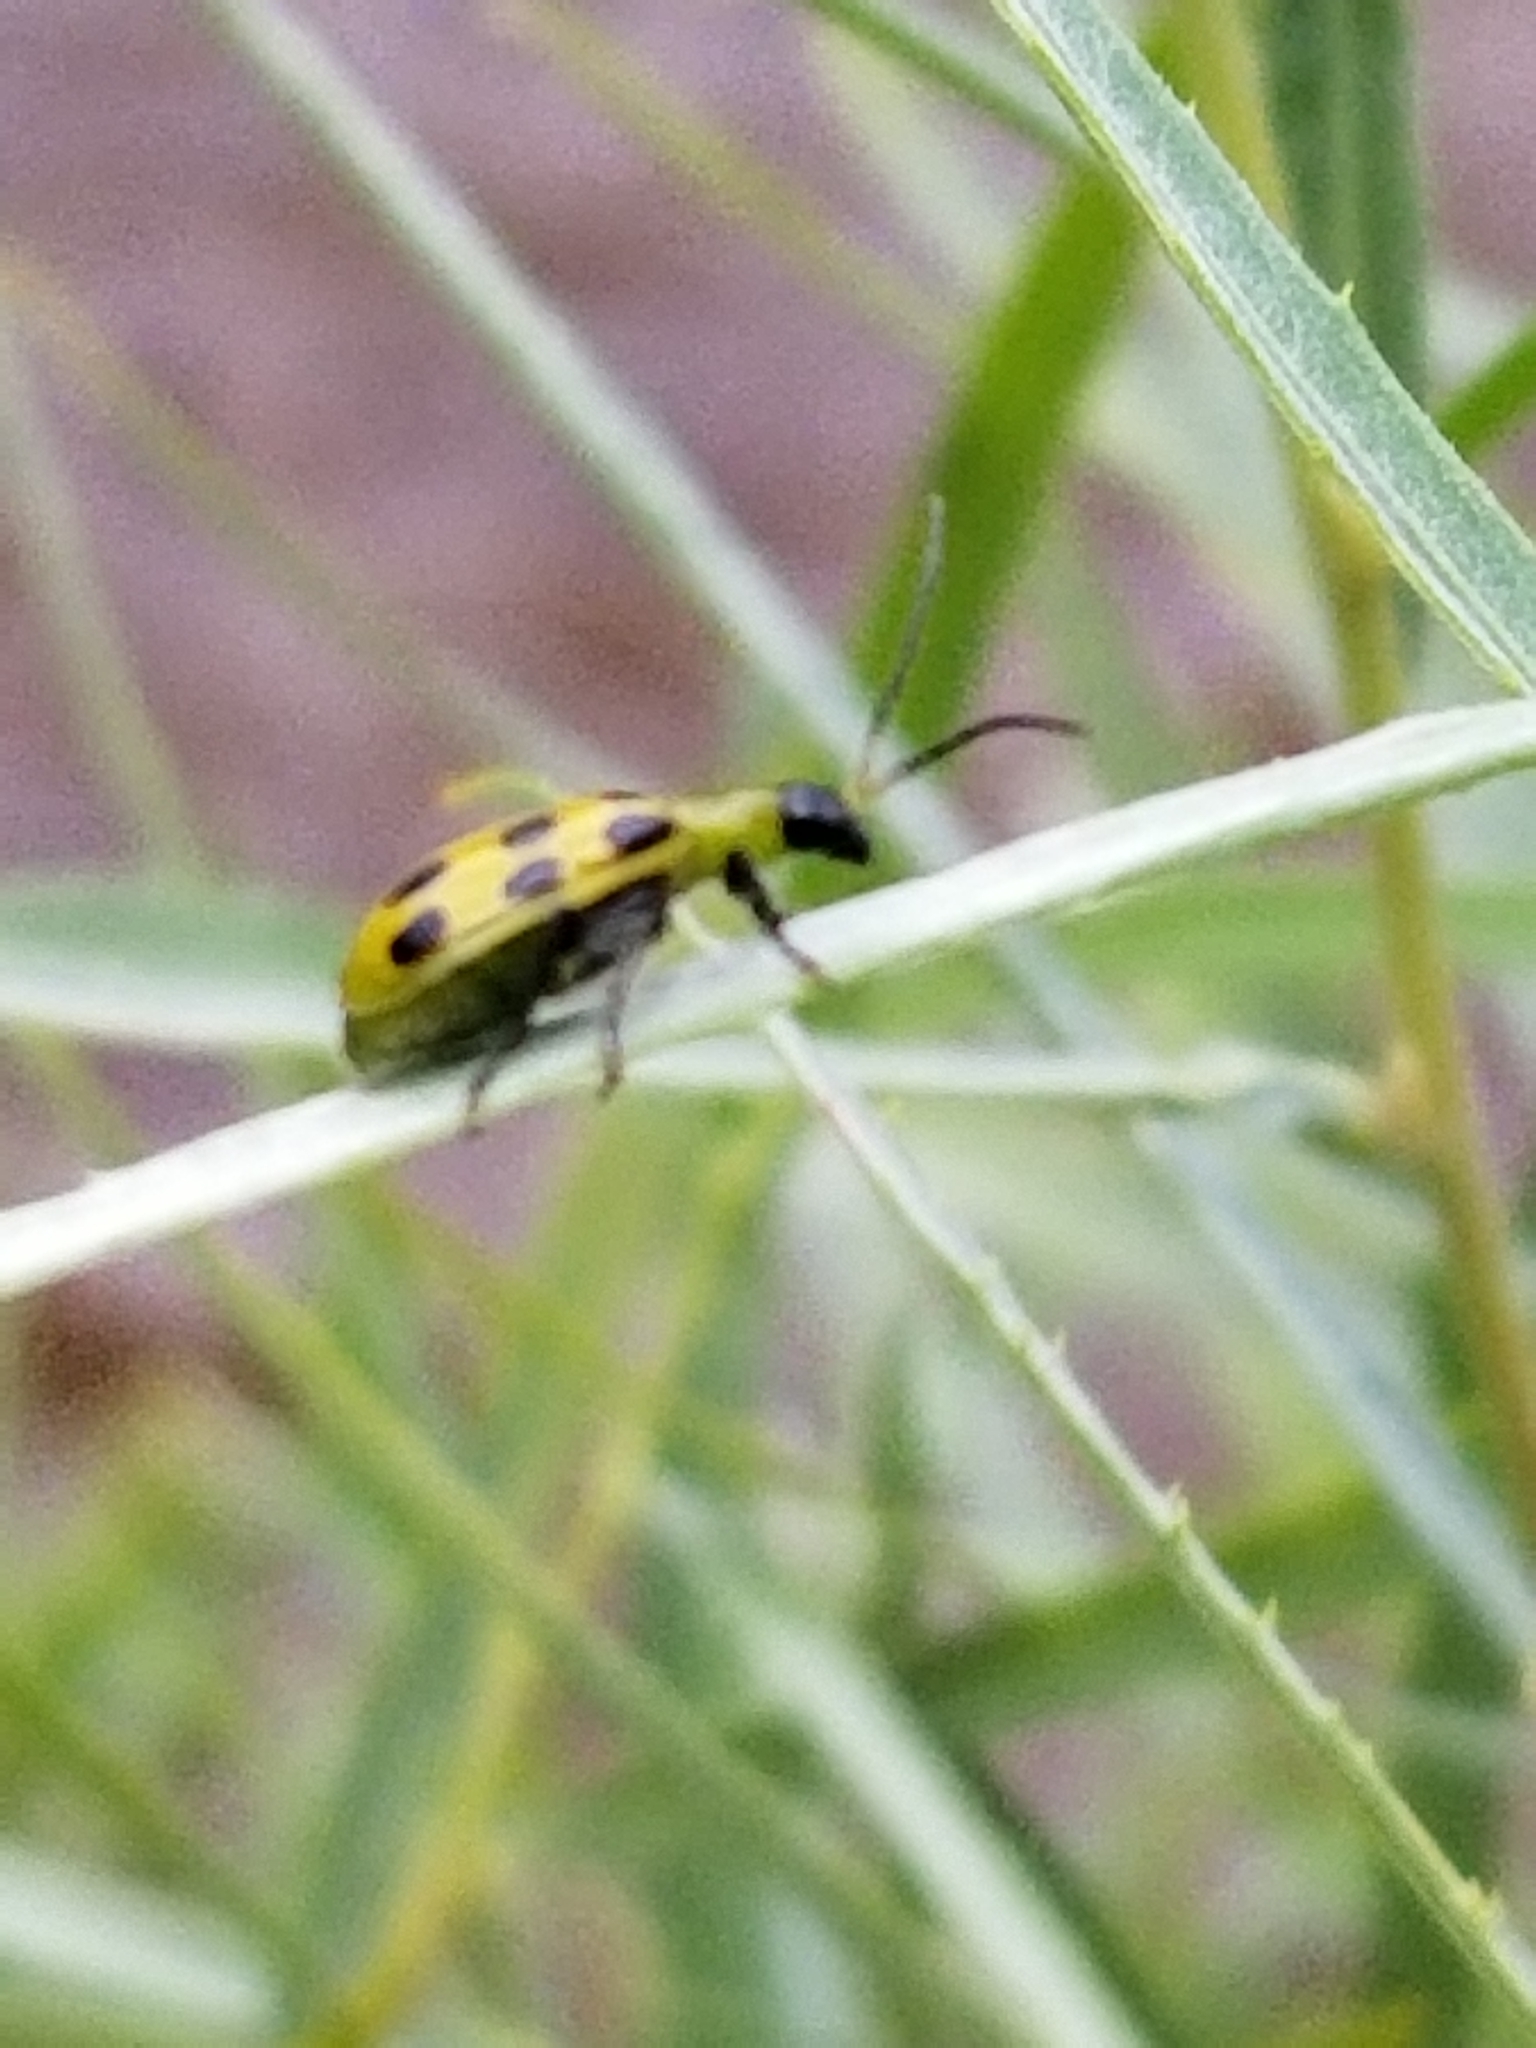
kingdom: Animalia
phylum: Arthropoda
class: Insecta
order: Coleoptera
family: Chrysomelidae
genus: Diabrotica
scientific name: Diabrotica undecimpunctata
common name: Spotted cucumber beetle
